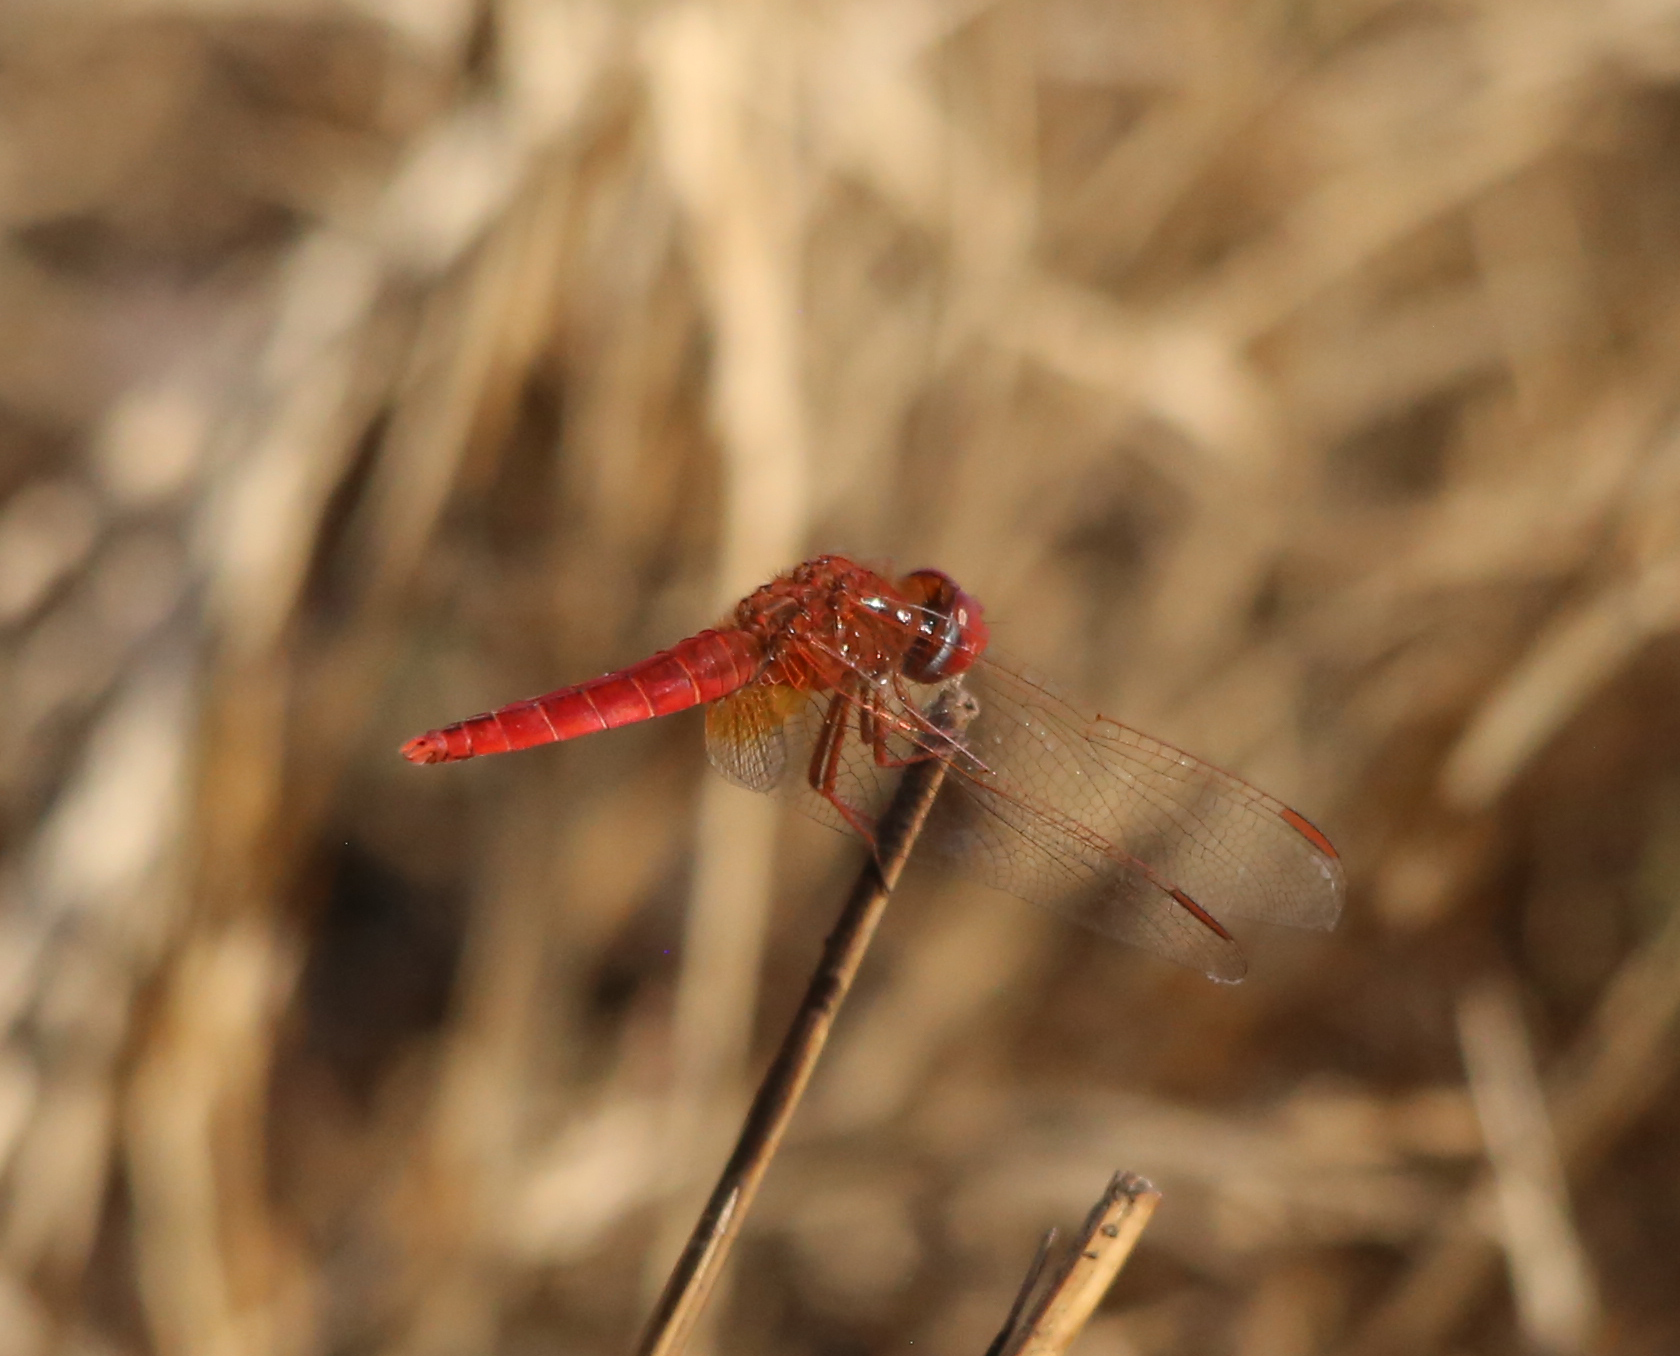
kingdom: Animalia
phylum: Arthropoda
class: Insecta
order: Odonata
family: Libellulidae
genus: Crocothemis
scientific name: Crocothemis erythraea
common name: Scarlet dragonfly
